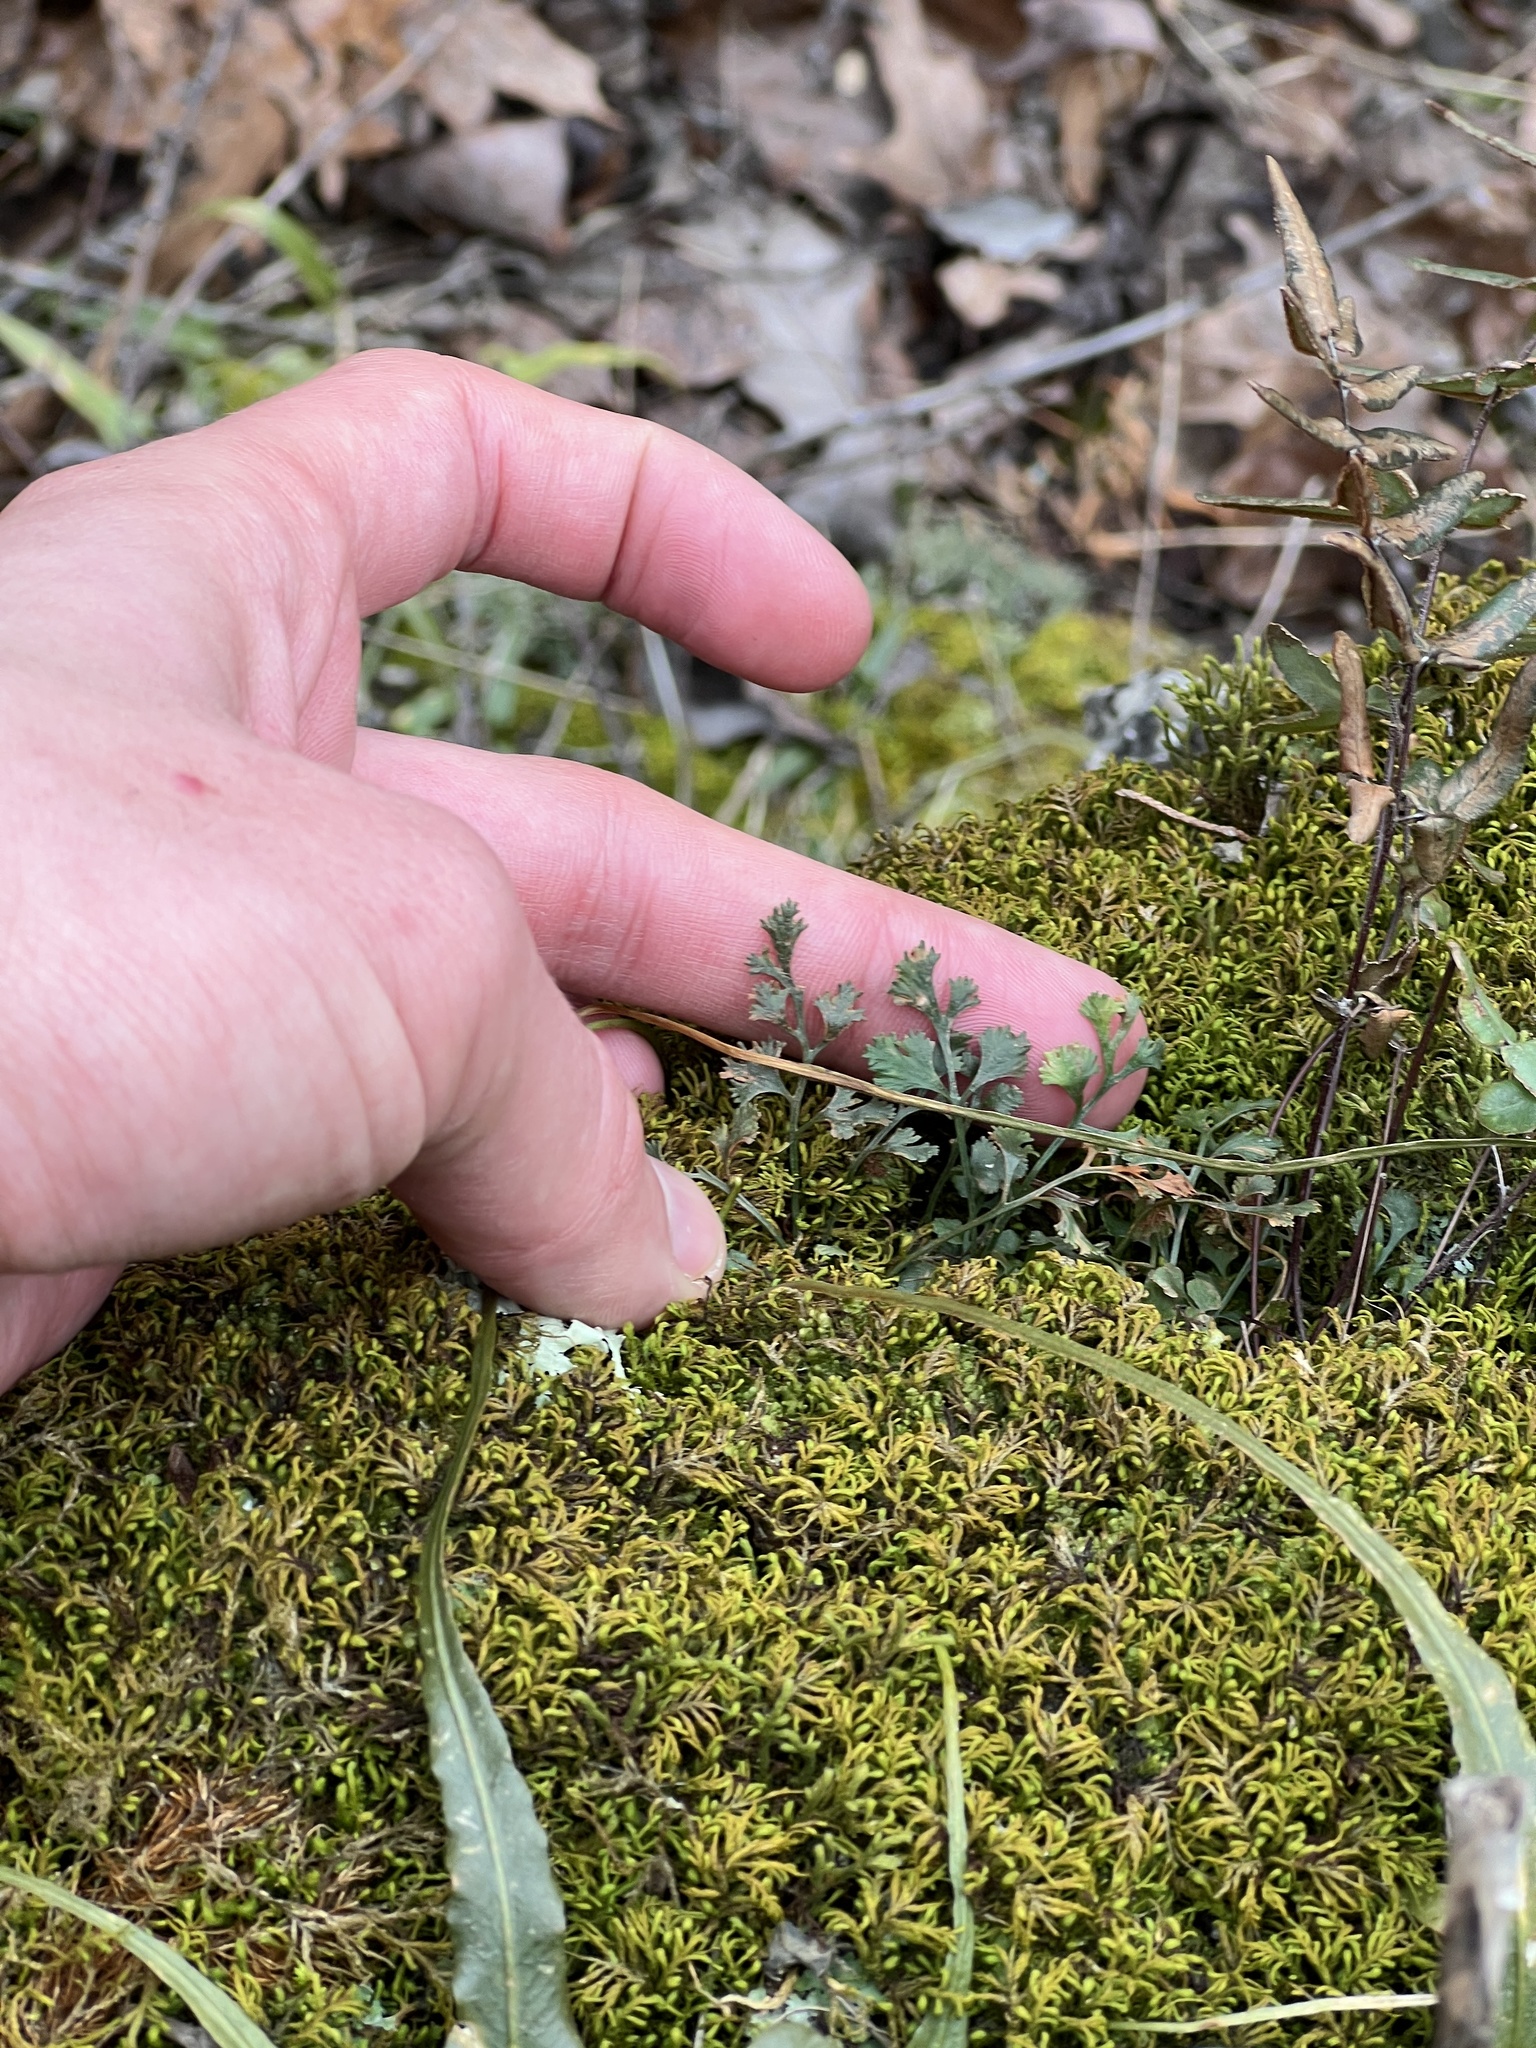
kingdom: Plantae
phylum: Tracheophyta
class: Polypodiopsida
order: Polypodiales
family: Aspleniaceae
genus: Asplenium
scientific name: Asplenium ruta-muraria
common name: Wall-rue
